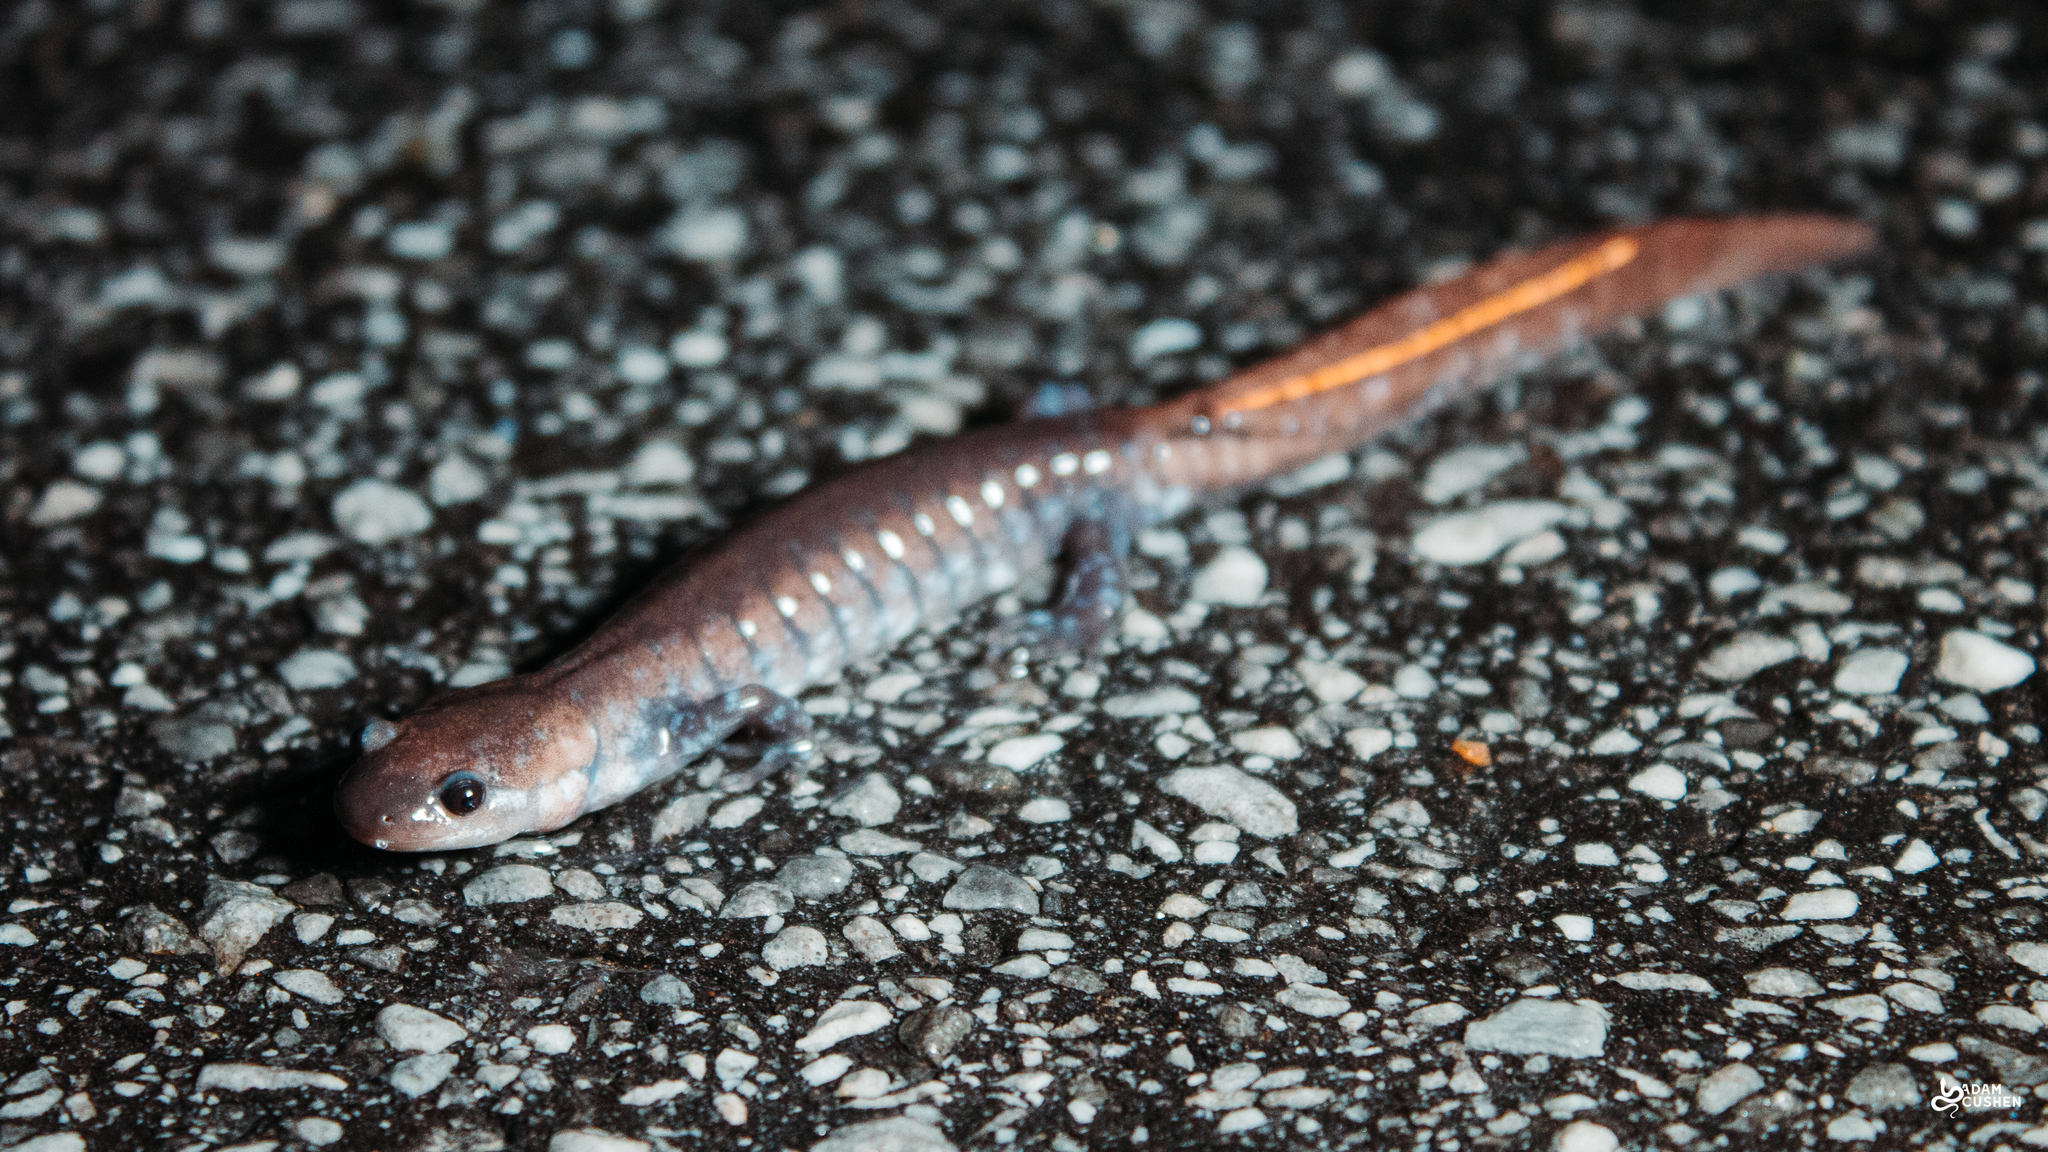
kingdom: Animalia
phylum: Chordata
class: Amphibia
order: Caudata
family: Ambystomatidae
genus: Ambystoma
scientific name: Ambystoma laterale
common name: Blue-spotted salamander
